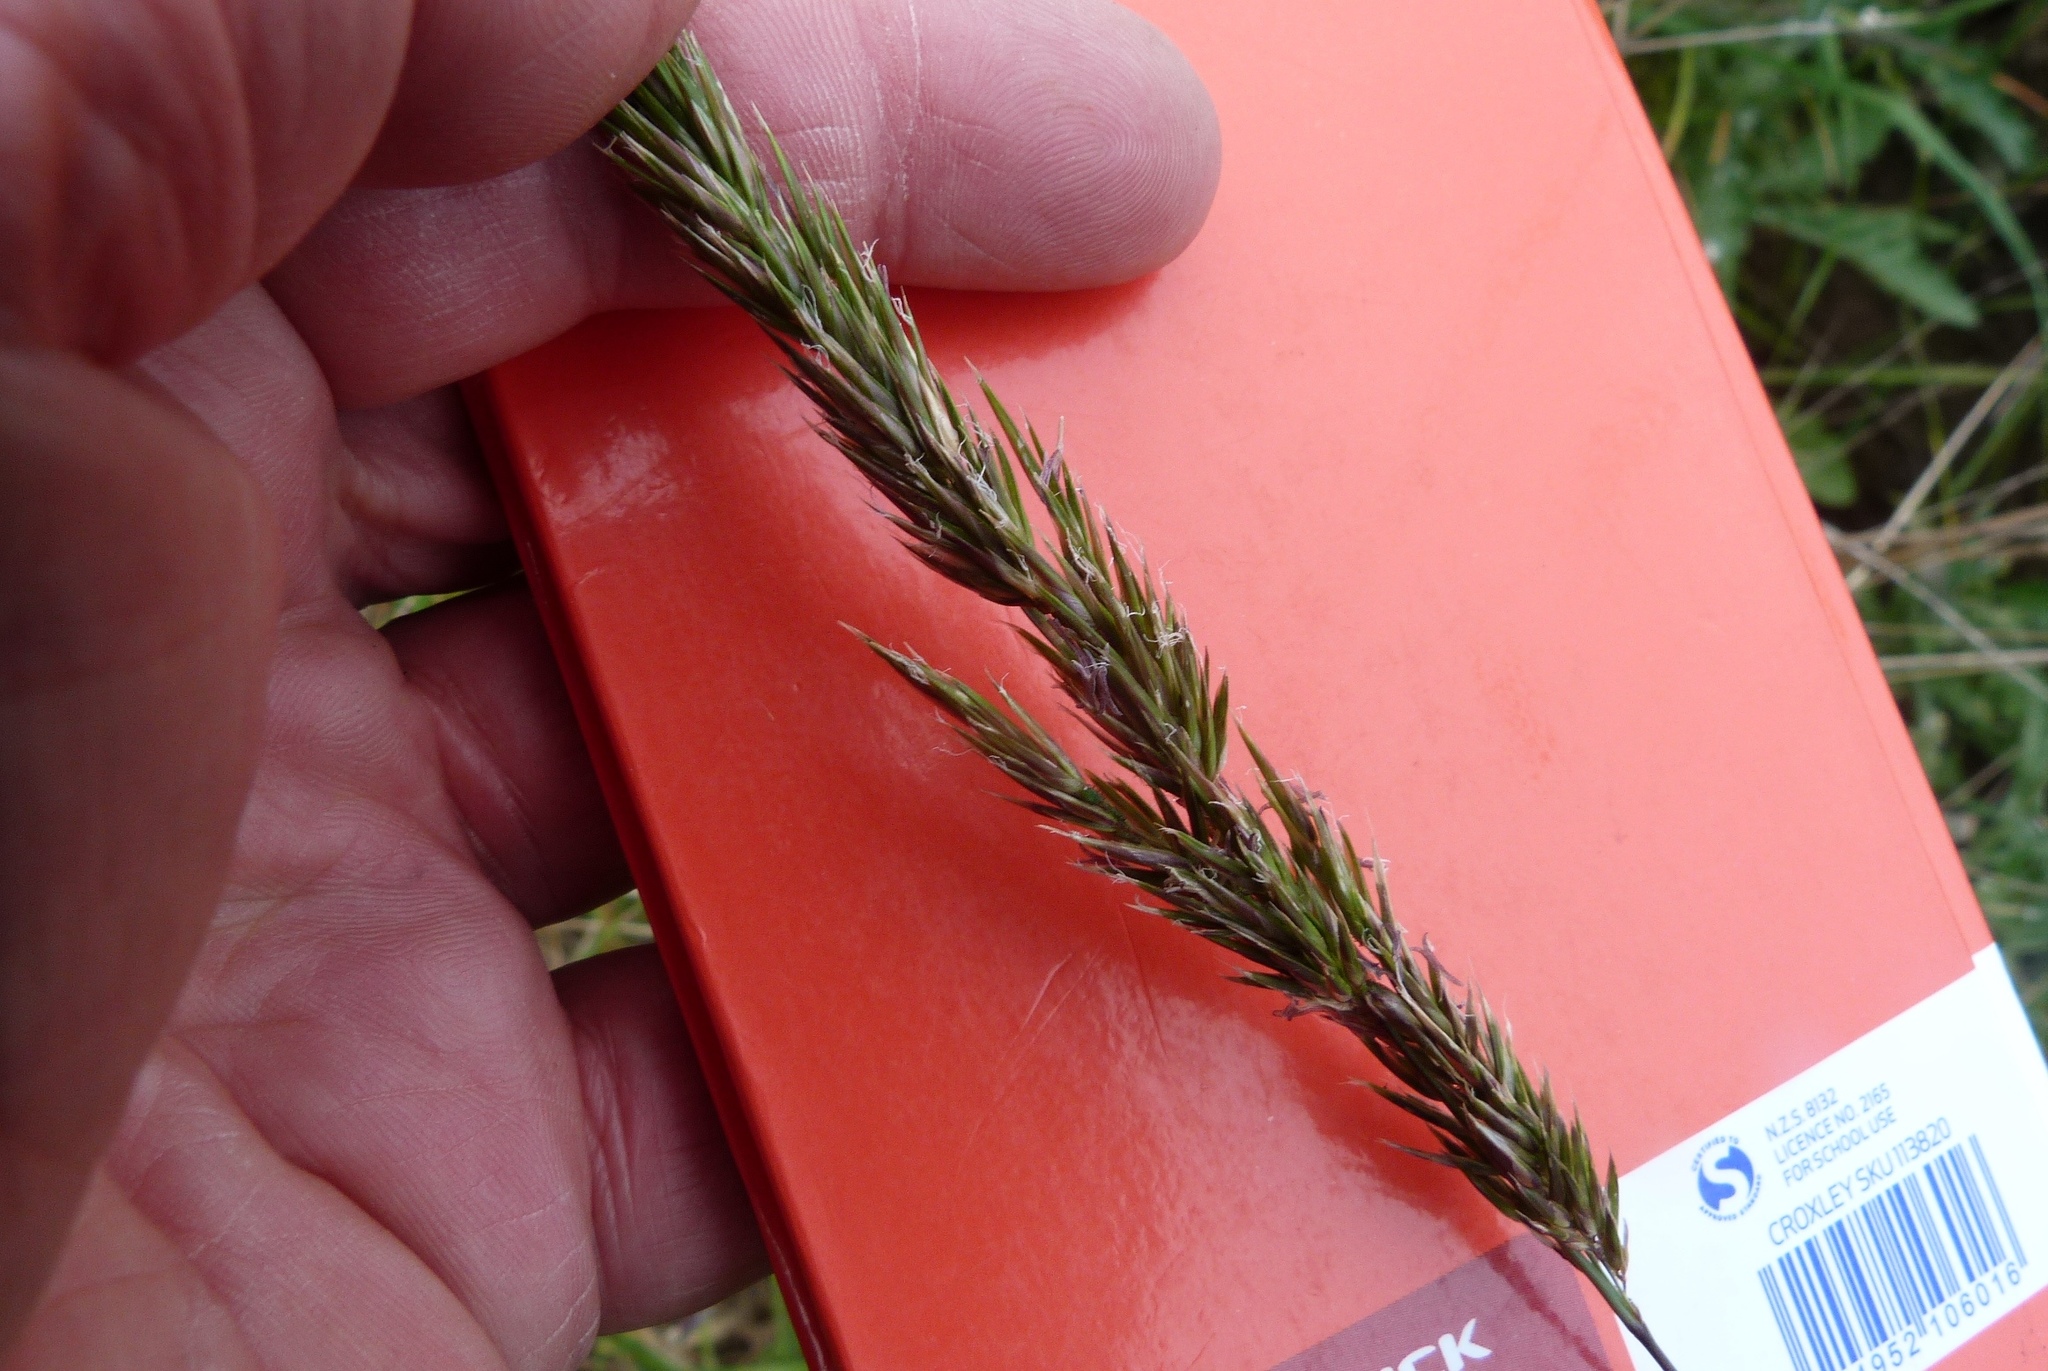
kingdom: Plantae
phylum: Tracheophyta
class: Liliopsida
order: Poales
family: Poaceae
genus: Anthoxanthum
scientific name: Anthoxanthum odoratum
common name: Sweet vernalgrass
